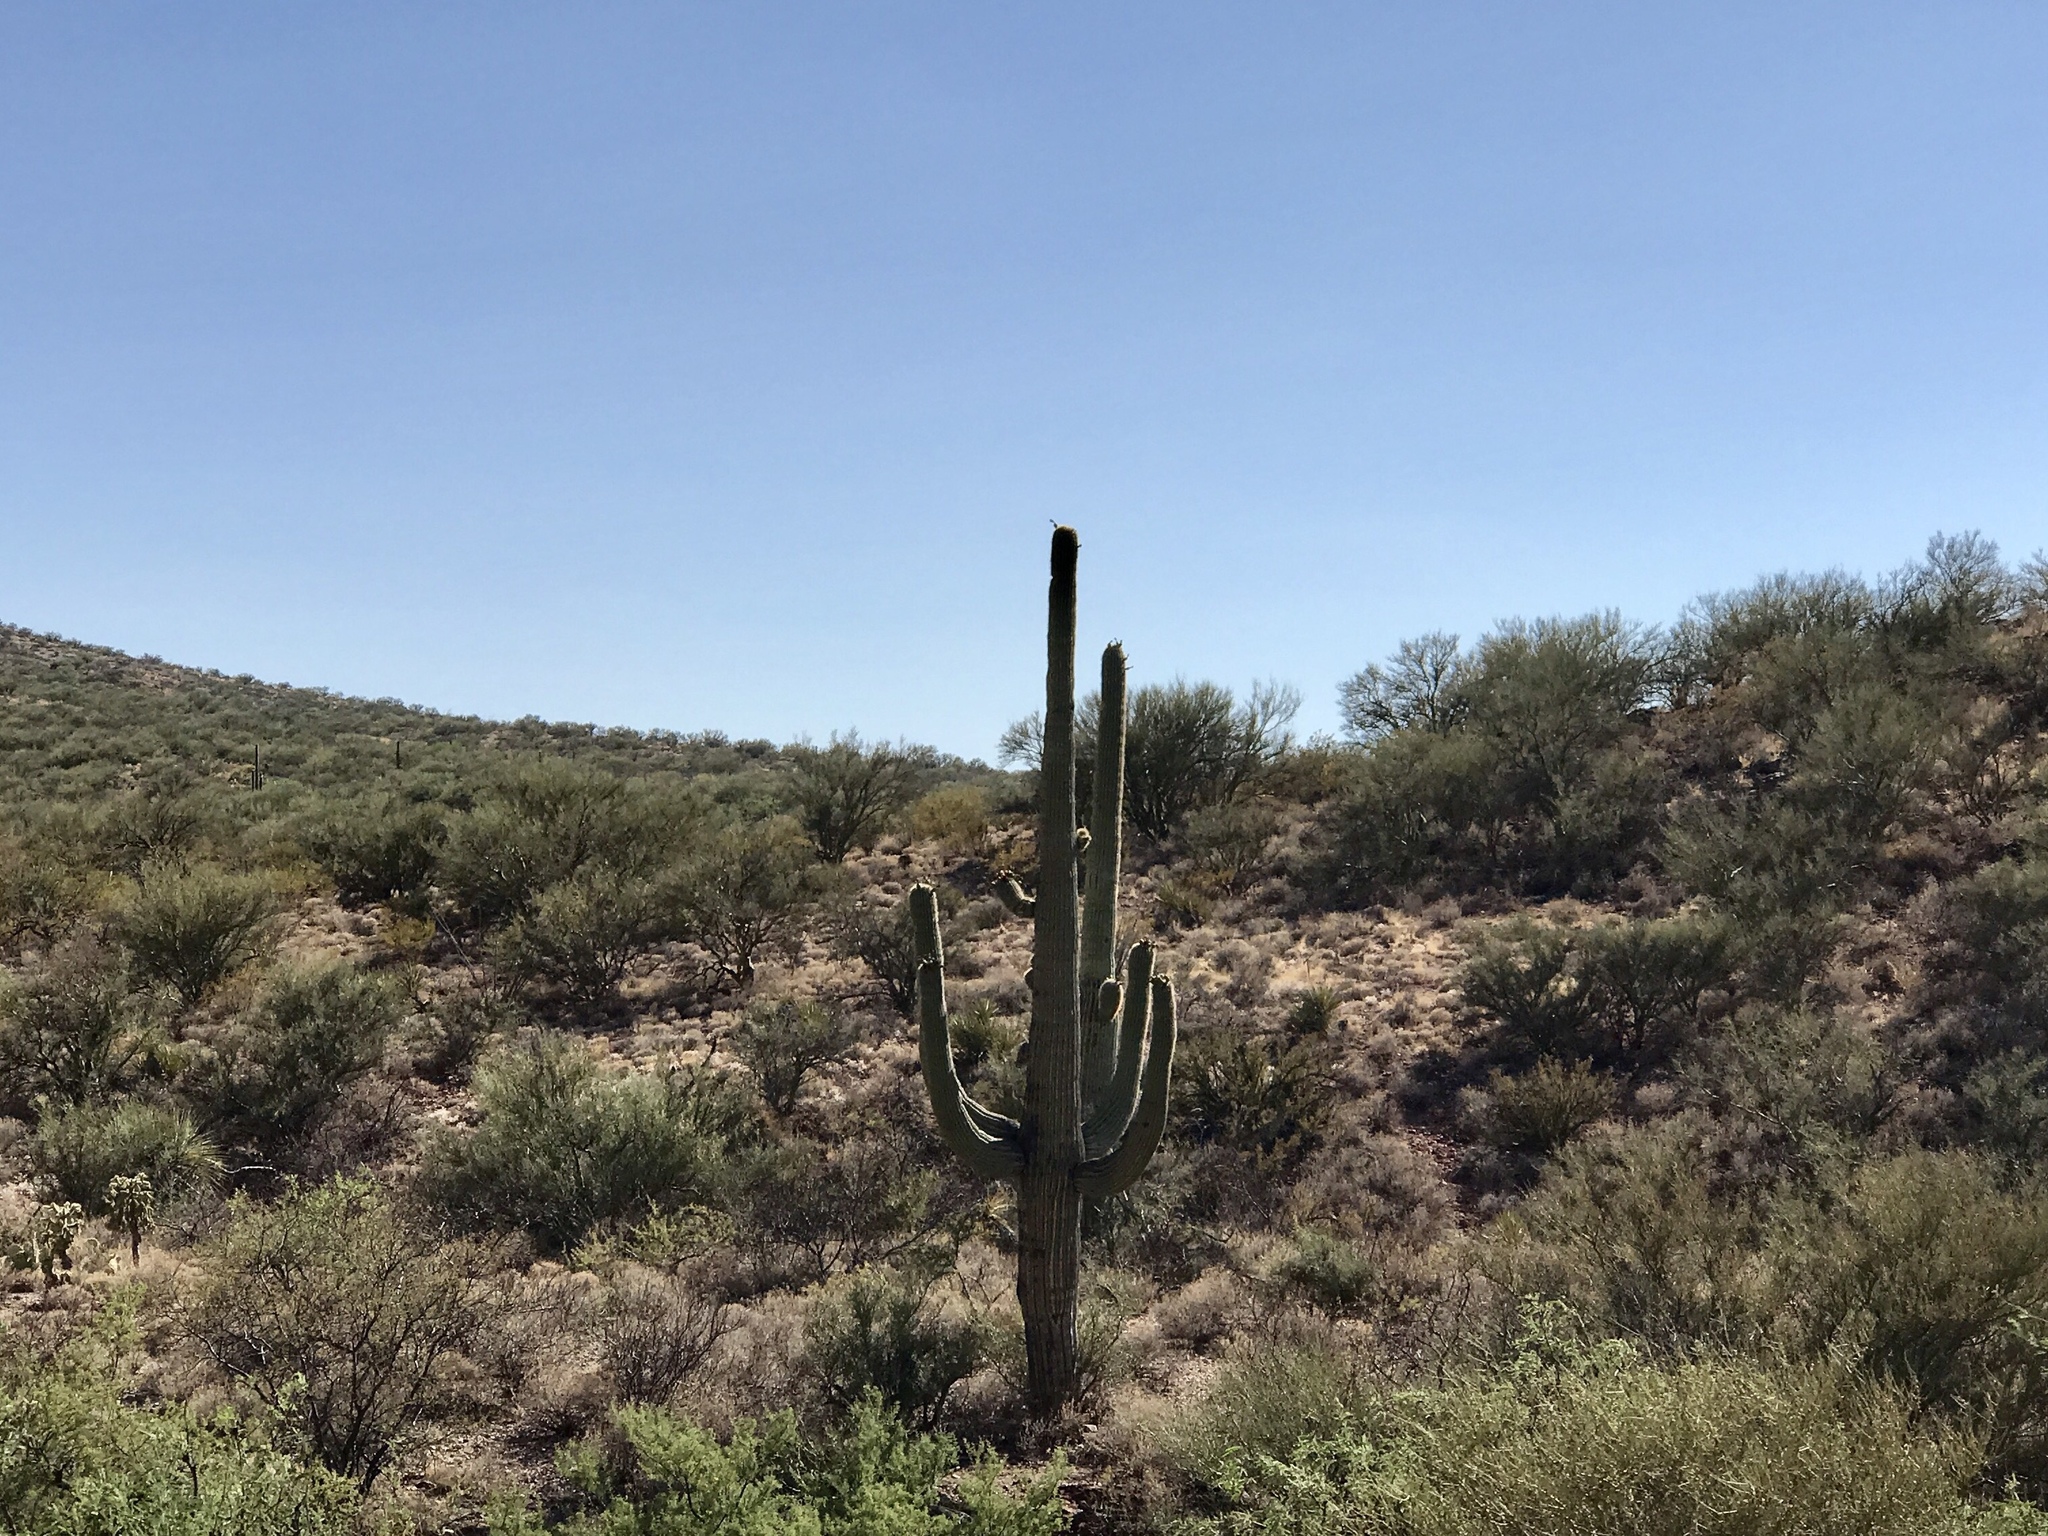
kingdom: Plantae
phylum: Tracheophyta
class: Magnoliopsida
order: Caryophyllales
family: Cactaceae
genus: Carnegiea
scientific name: Carnegiea gigantea
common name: Saguaro
